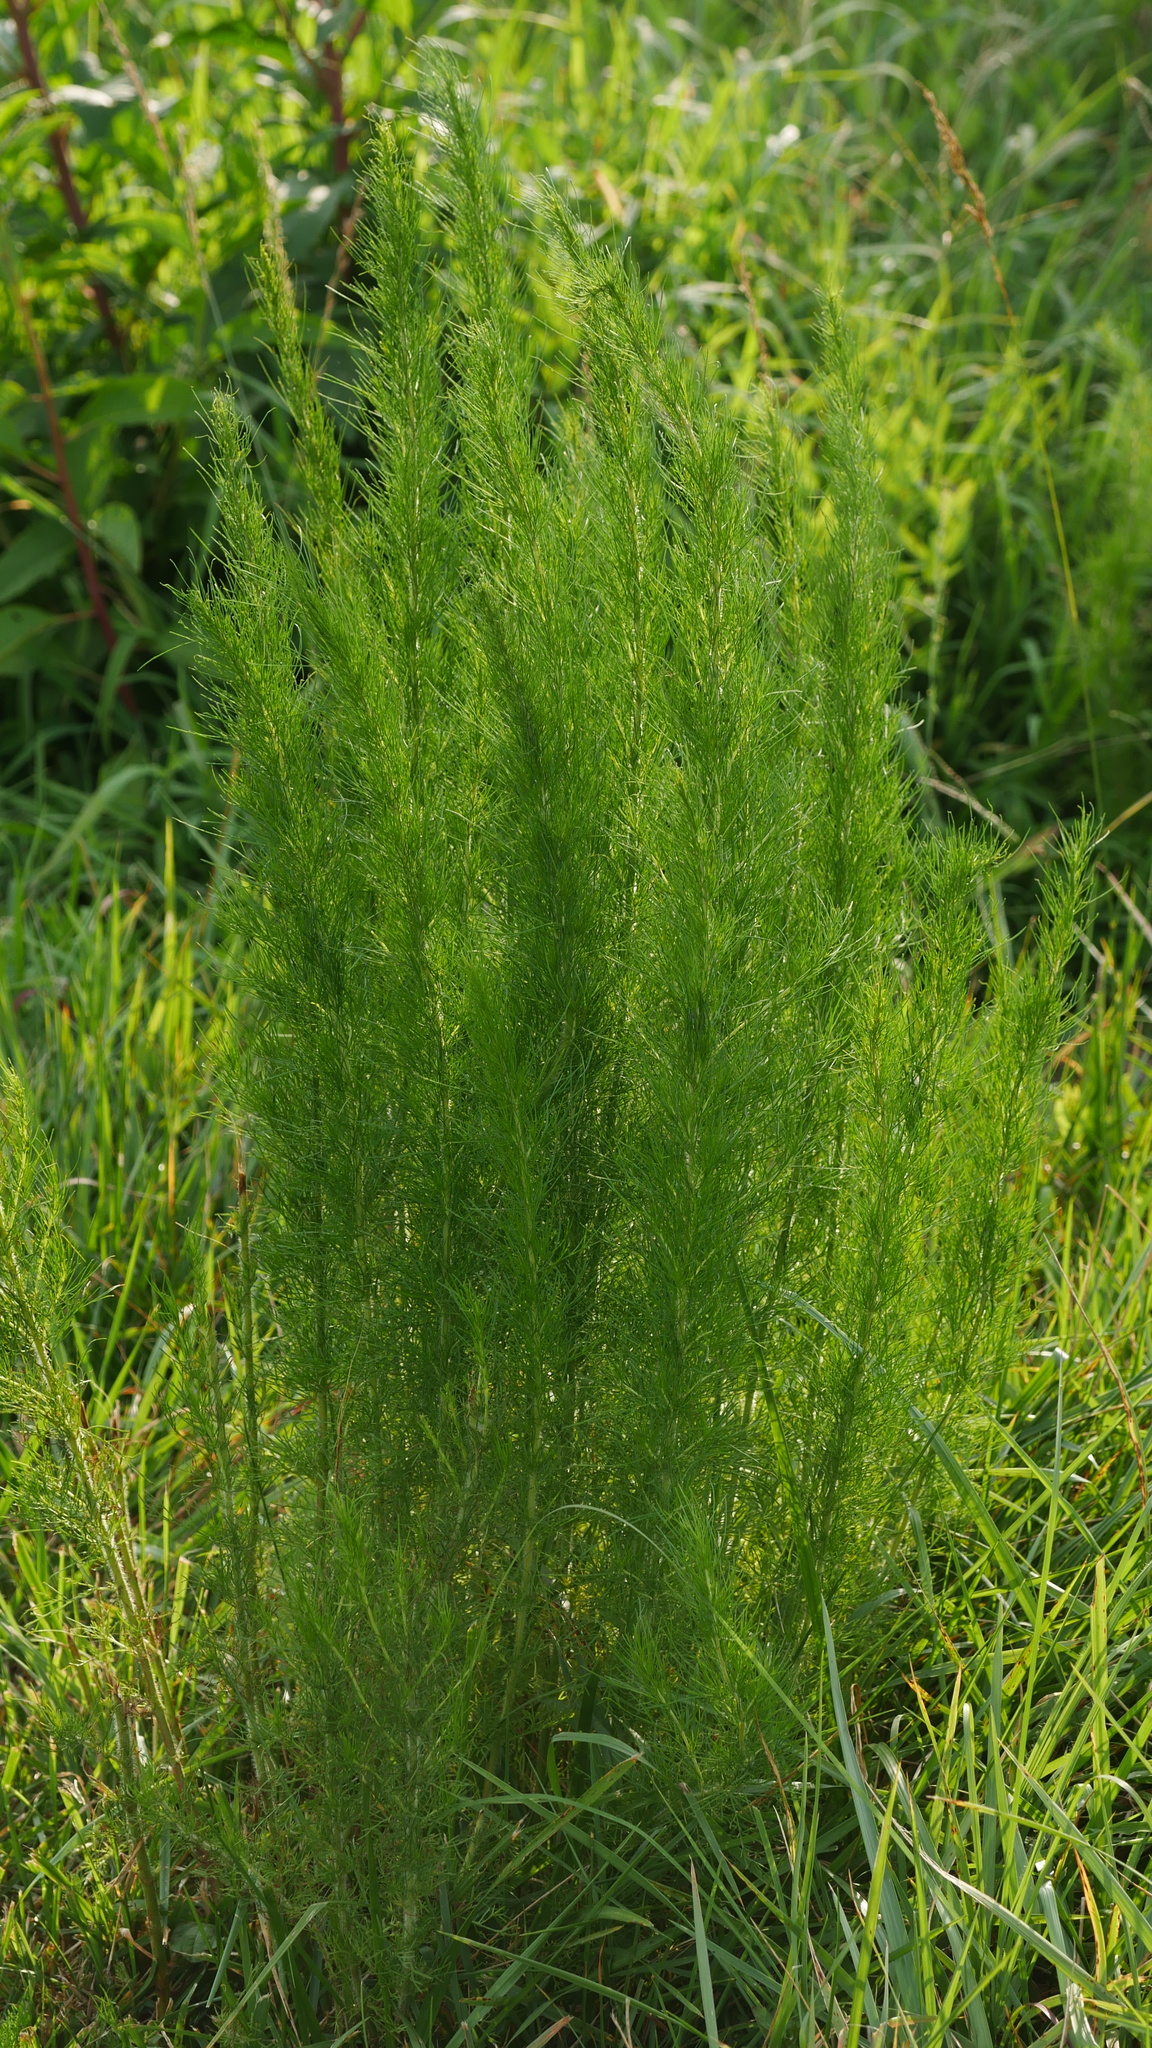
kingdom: Plantae
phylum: Tracheophyta
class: Magnoliopsida
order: Asterales
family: Asteraceae
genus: Eupatorium
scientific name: Eupatorium capillifolium
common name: Dog-fennel
